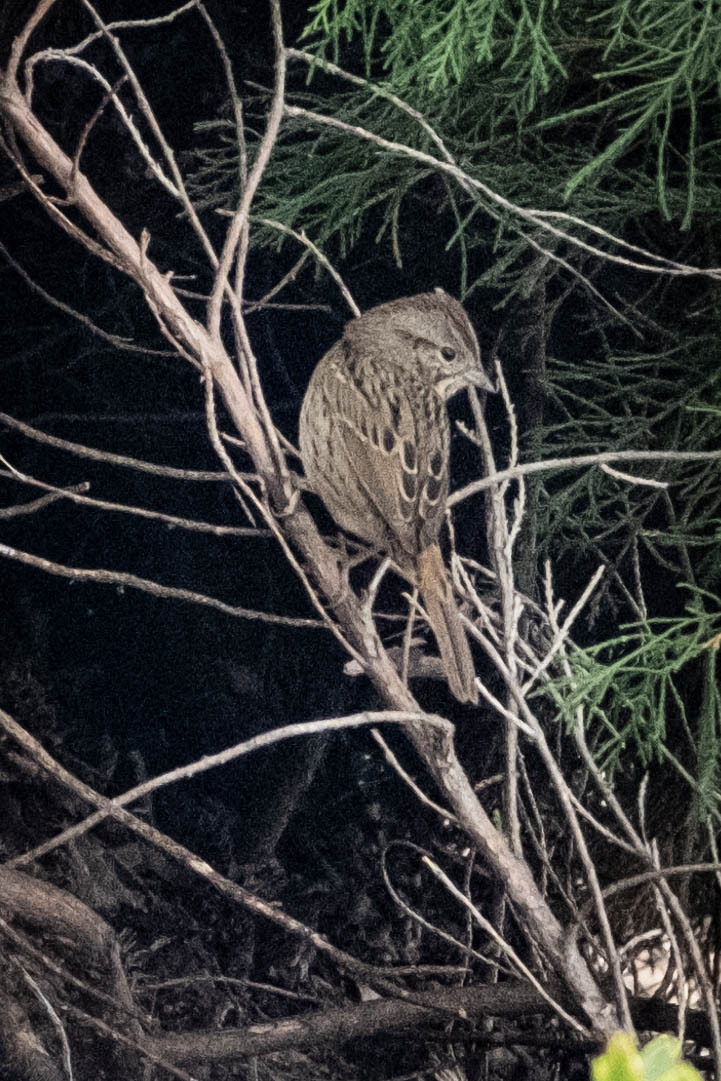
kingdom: Animalia
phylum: Chordata
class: Aves
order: Passeriformes
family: Passerellidae
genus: Melospiza
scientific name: Melospiza lincolnii
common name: Lincoln's sparrow
